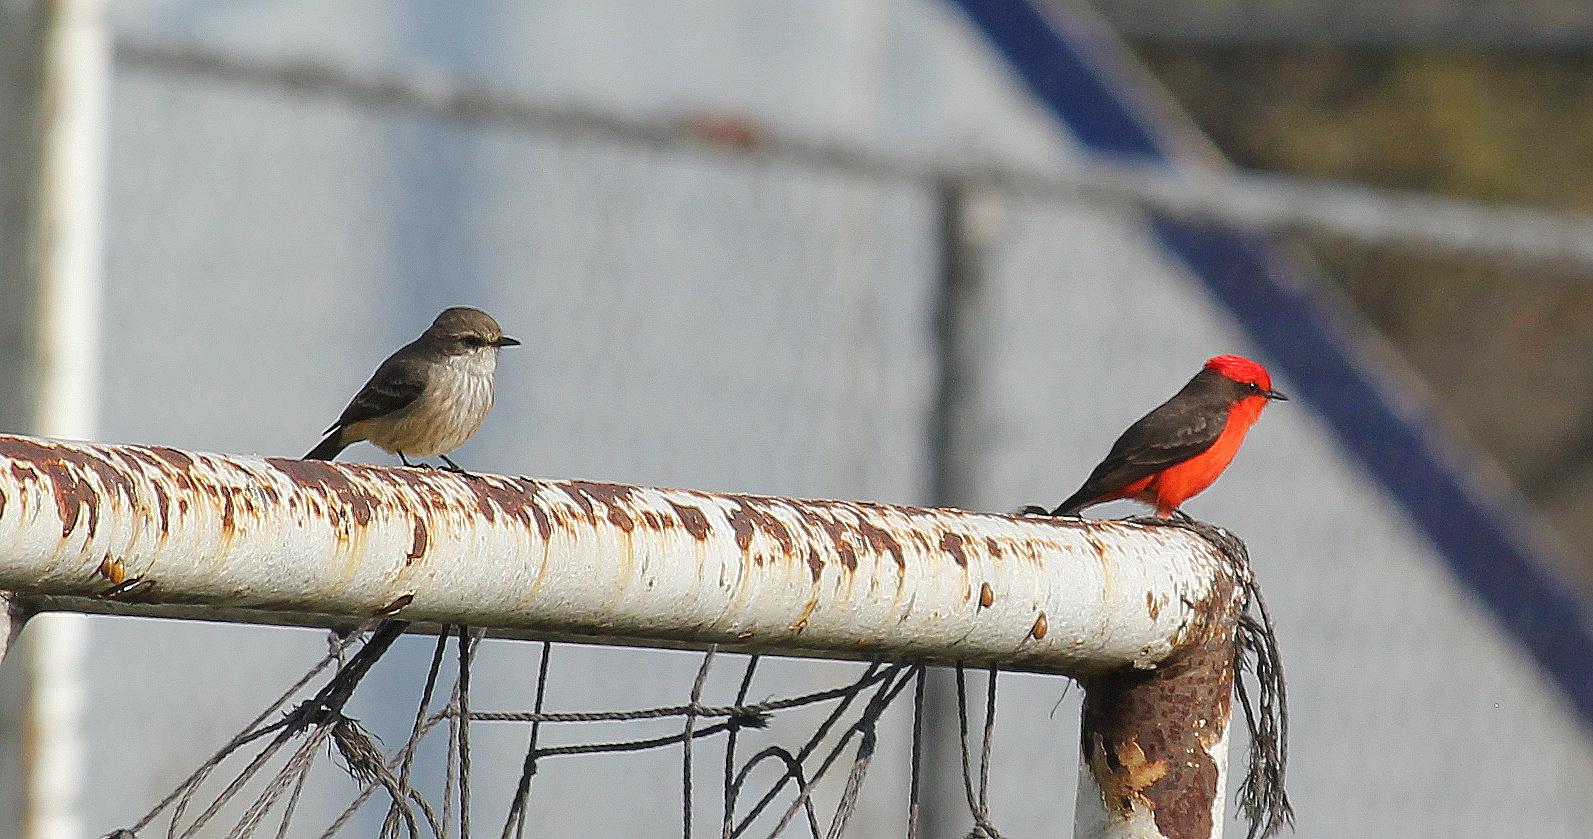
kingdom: Animalia
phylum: Chordata
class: Aves
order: Passeriformes
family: Tyrannidae
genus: Pyrocephalus
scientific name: Pyrocephalus rubinus
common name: Vermilion flycatcher
